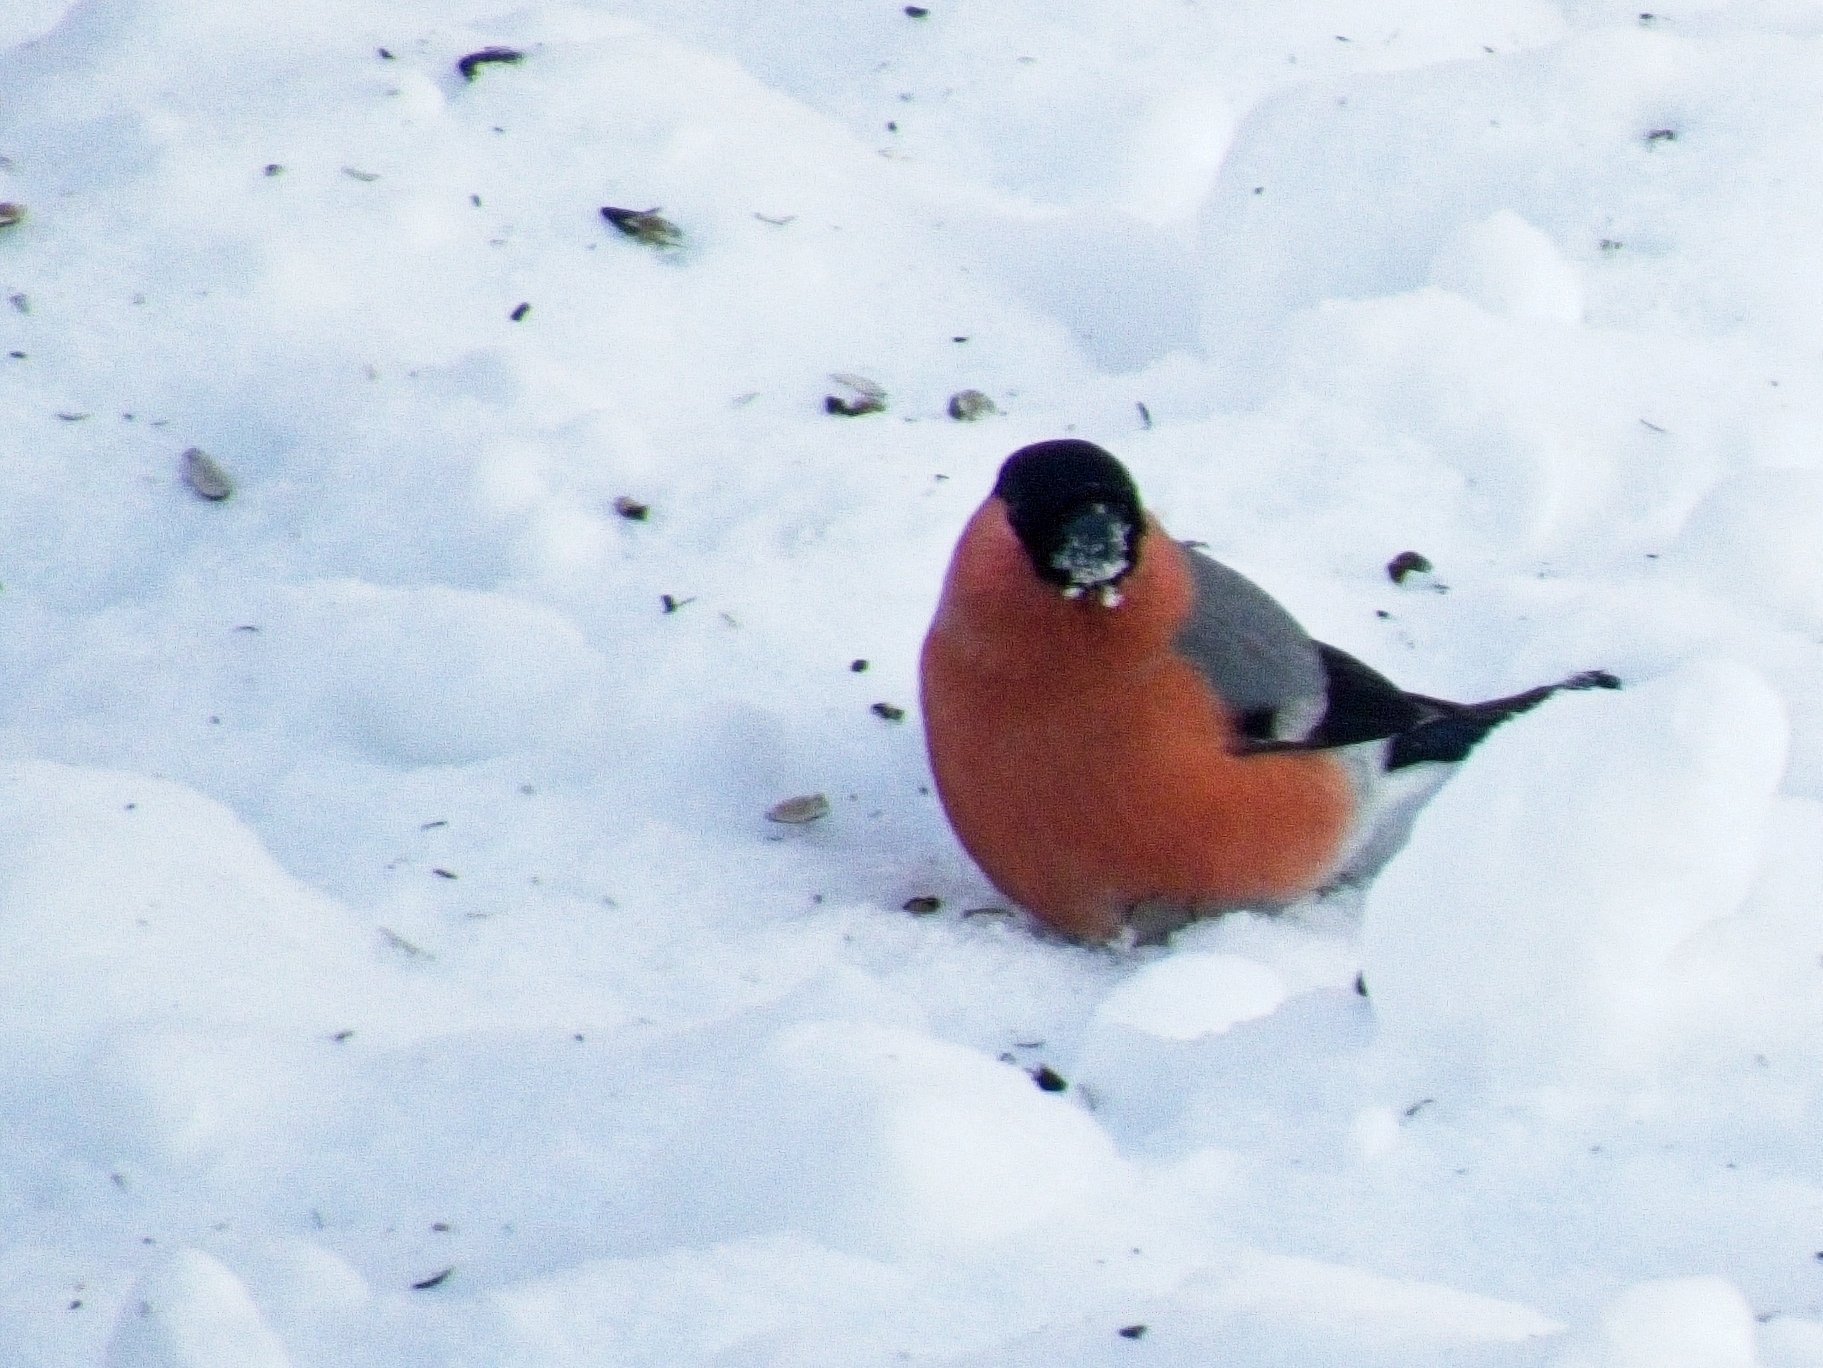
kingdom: Animalia
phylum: Chordata
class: Aves
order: Passeriformes
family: Fringillidae
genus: Pyrrhula
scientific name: Pyrrhula pyrrhula
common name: Eurasian bullfinch
